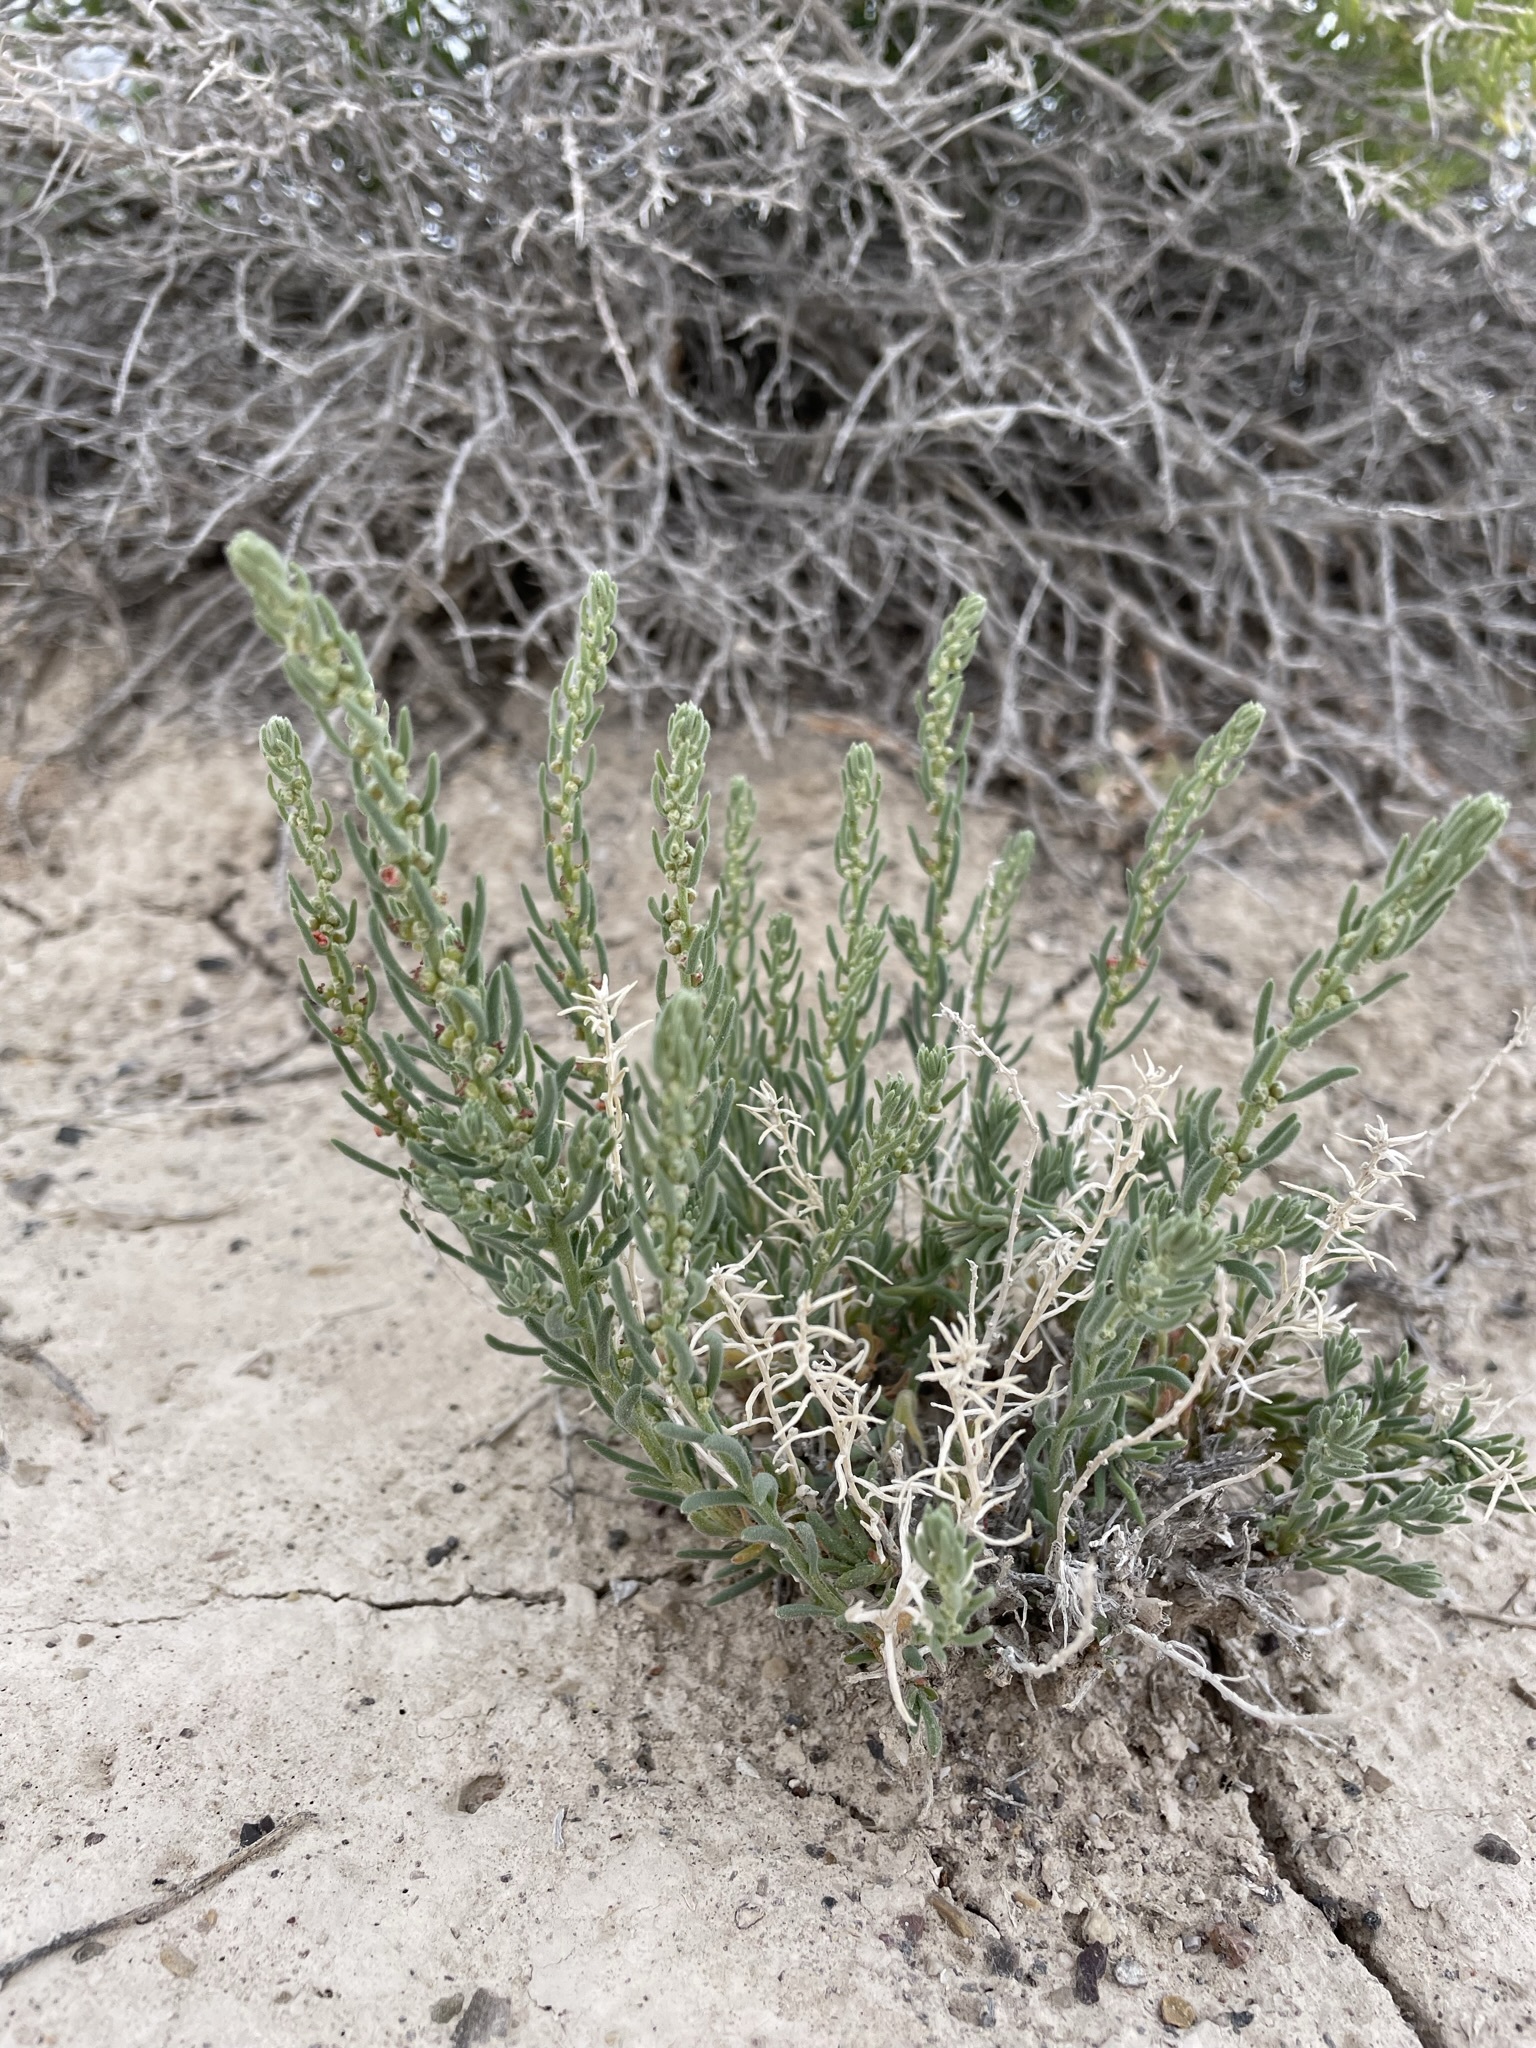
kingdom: Plantae
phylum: Tracheophyta
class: Magnoliopsida
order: Caryophyllales
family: Amaranthaceae
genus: Neokochia
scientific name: Neokochia americana
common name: Perennial summer-cypress
